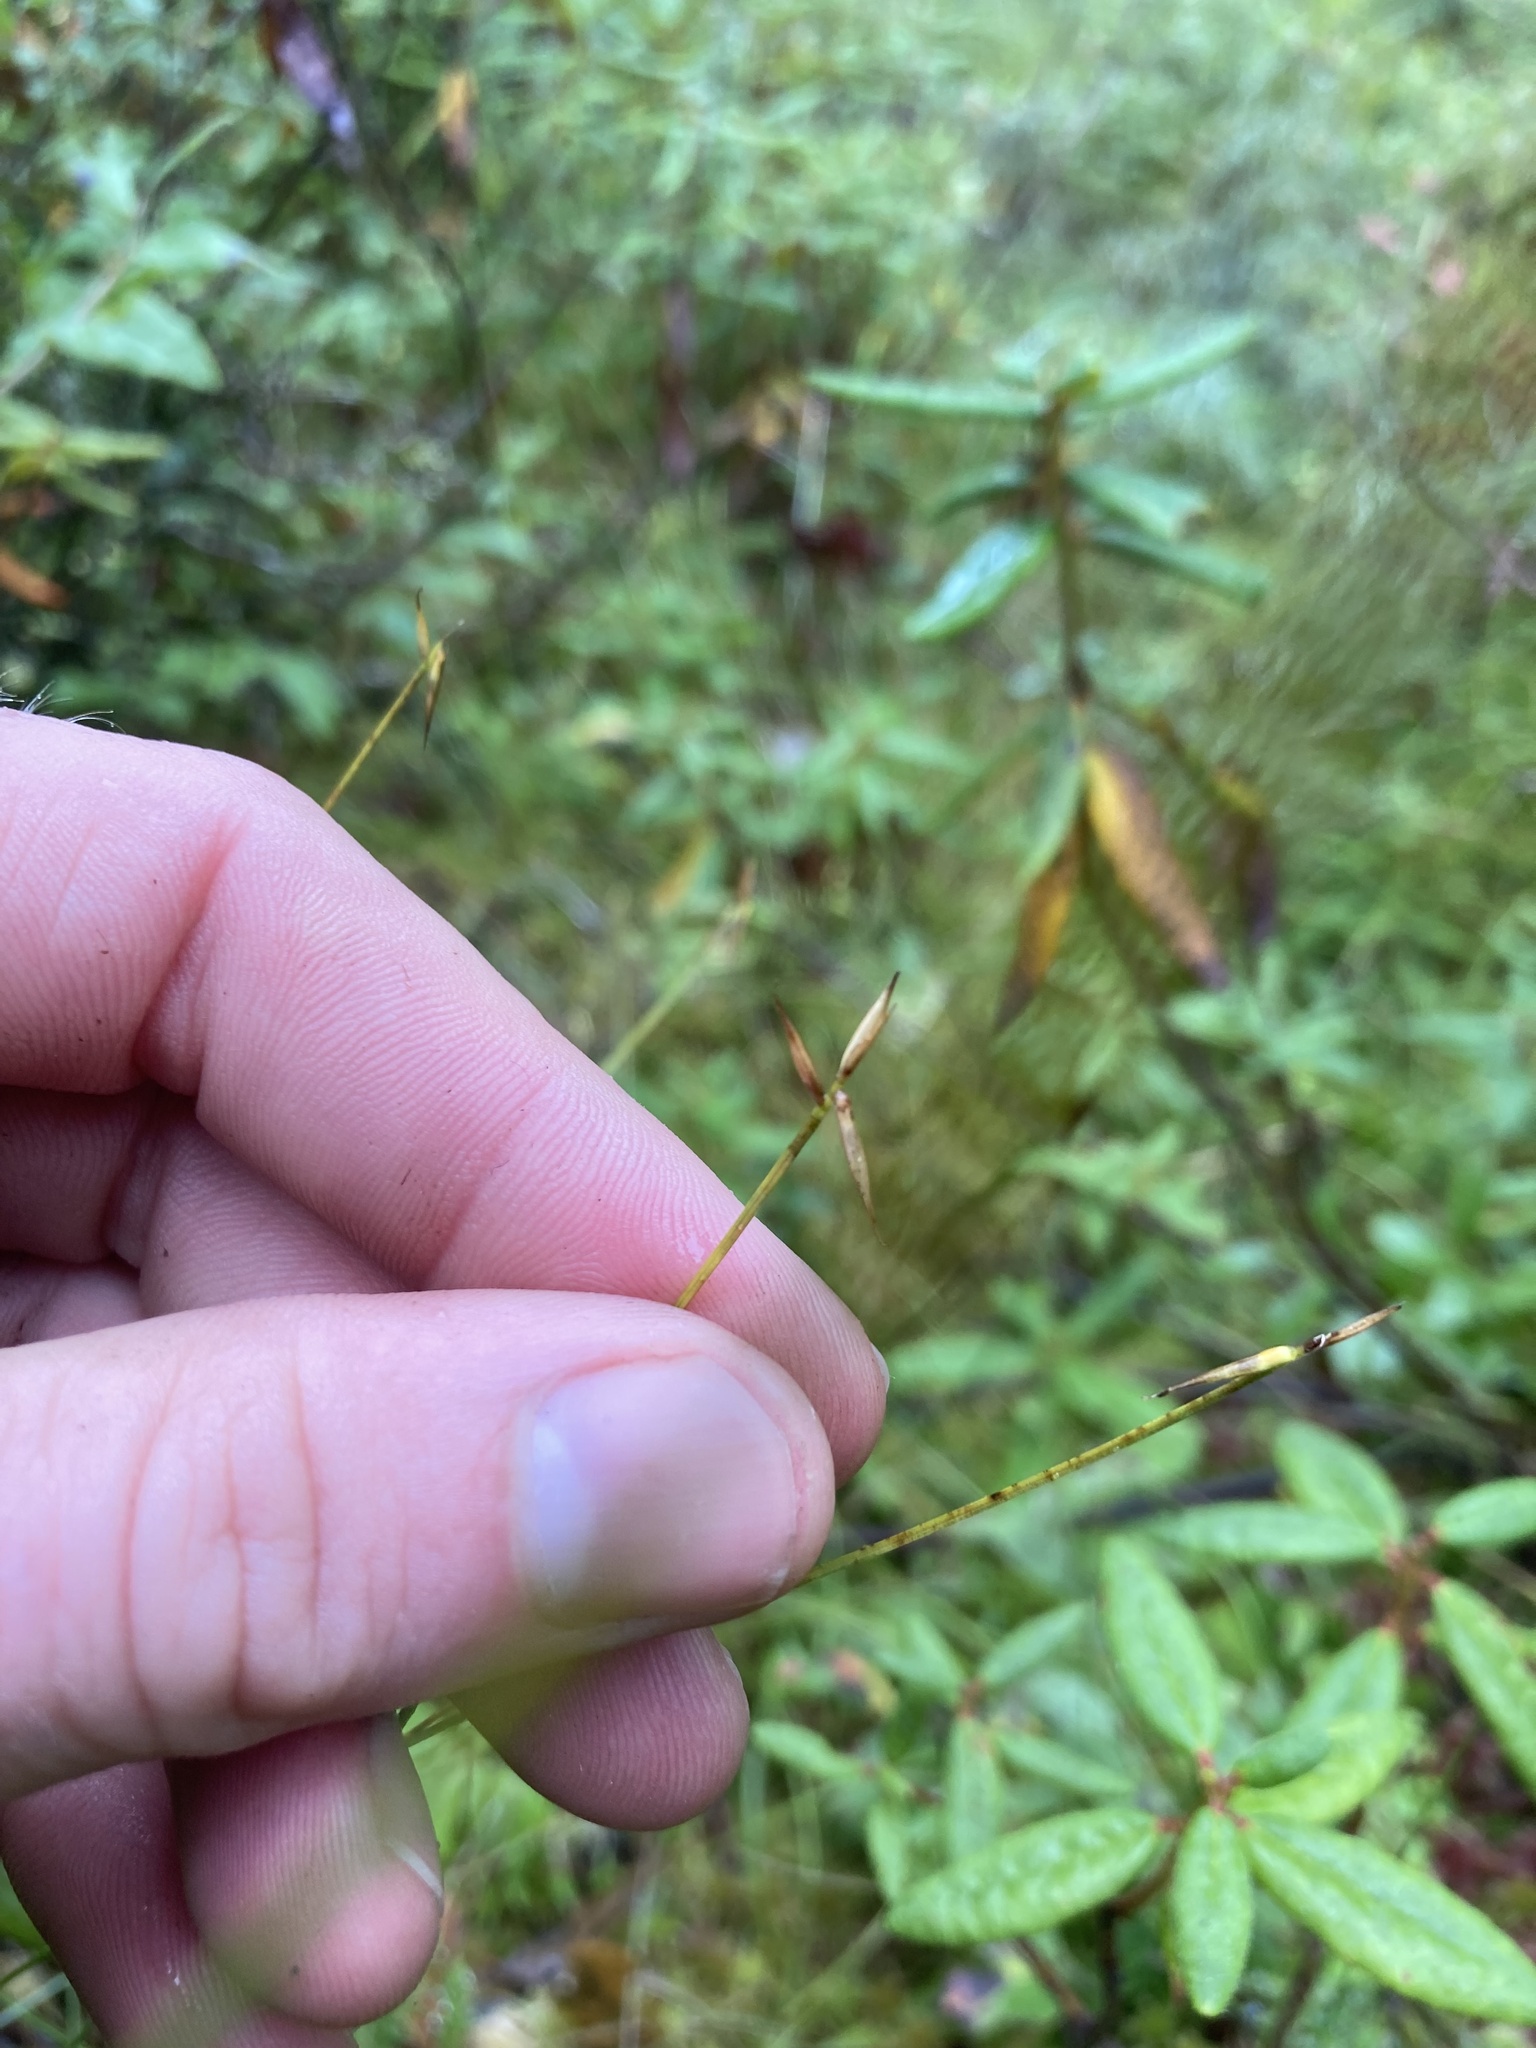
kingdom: Plantae
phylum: Tracheophyta
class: Liliopsida
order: Poales
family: Cyperaceae
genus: Carex
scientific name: Carex pauciflora
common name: Few-flowered sedge
